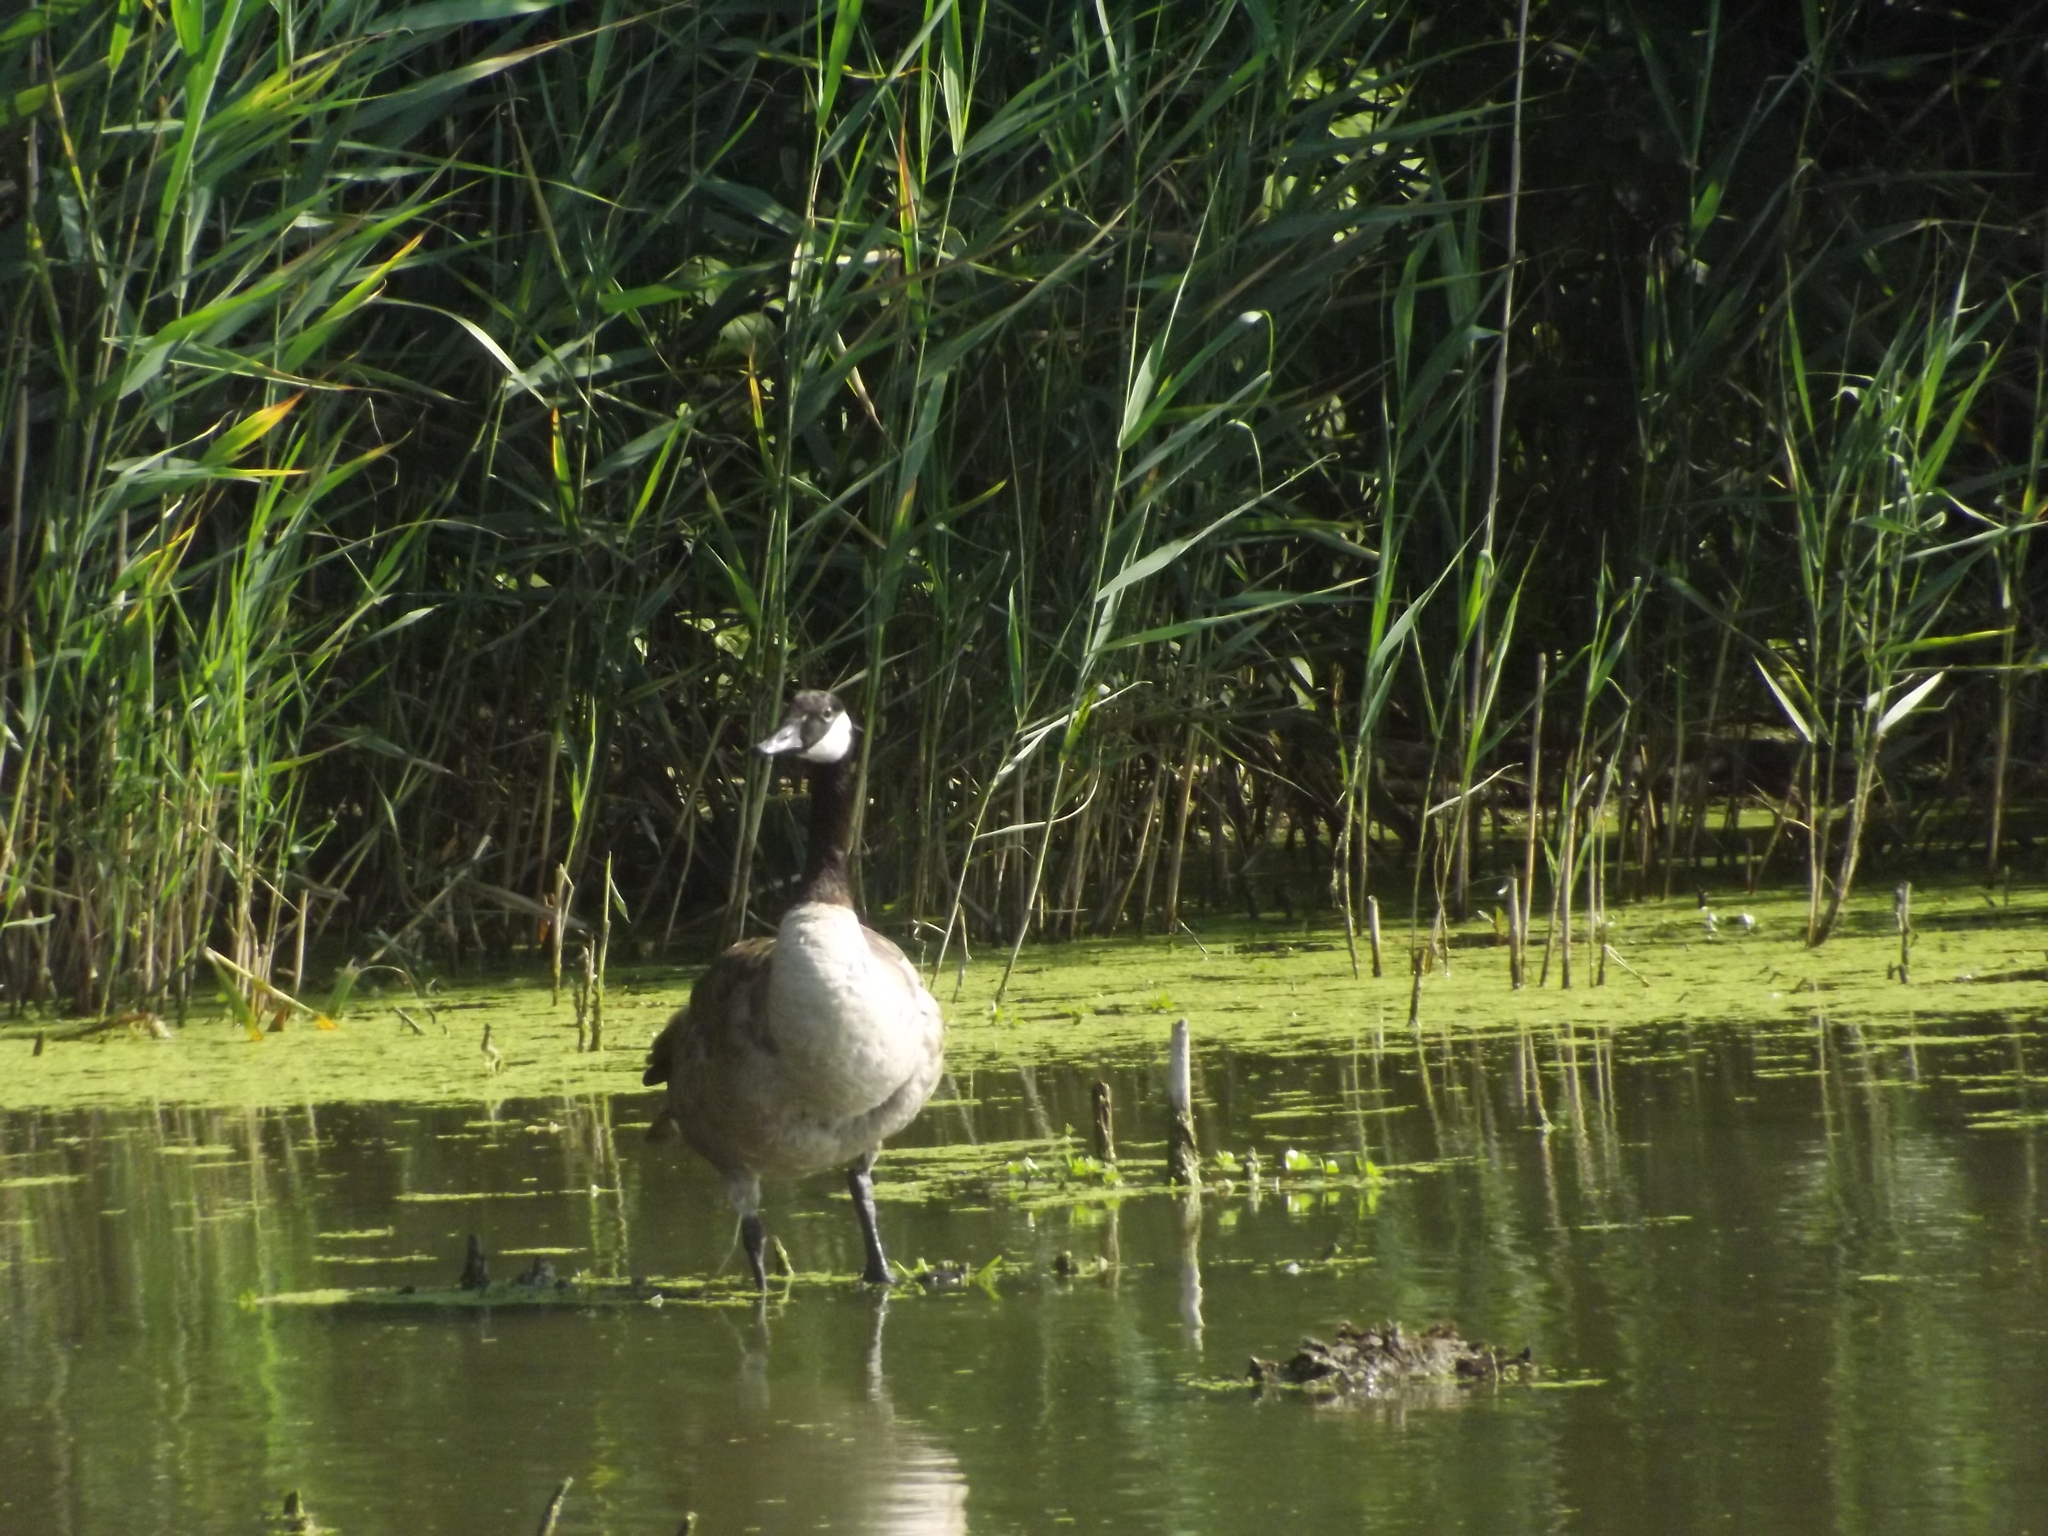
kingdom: Animalia
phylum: Chordata
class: Aves
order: Anseriformes
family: Anatidae
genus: Branta
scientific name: Branta canadensis
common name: Canada goose
